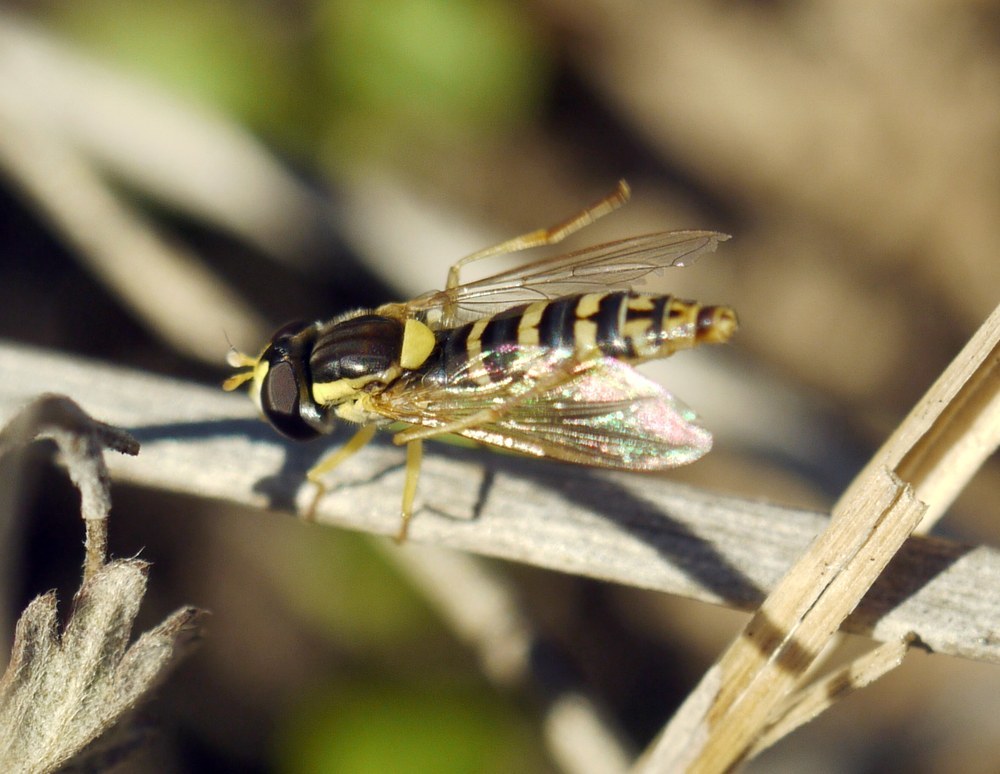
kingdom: Animalia
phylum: Arthropoda
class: Insecta
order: Diptera
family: Syrphidae
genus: Sphaerophoria
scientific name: Sphaerophoria
